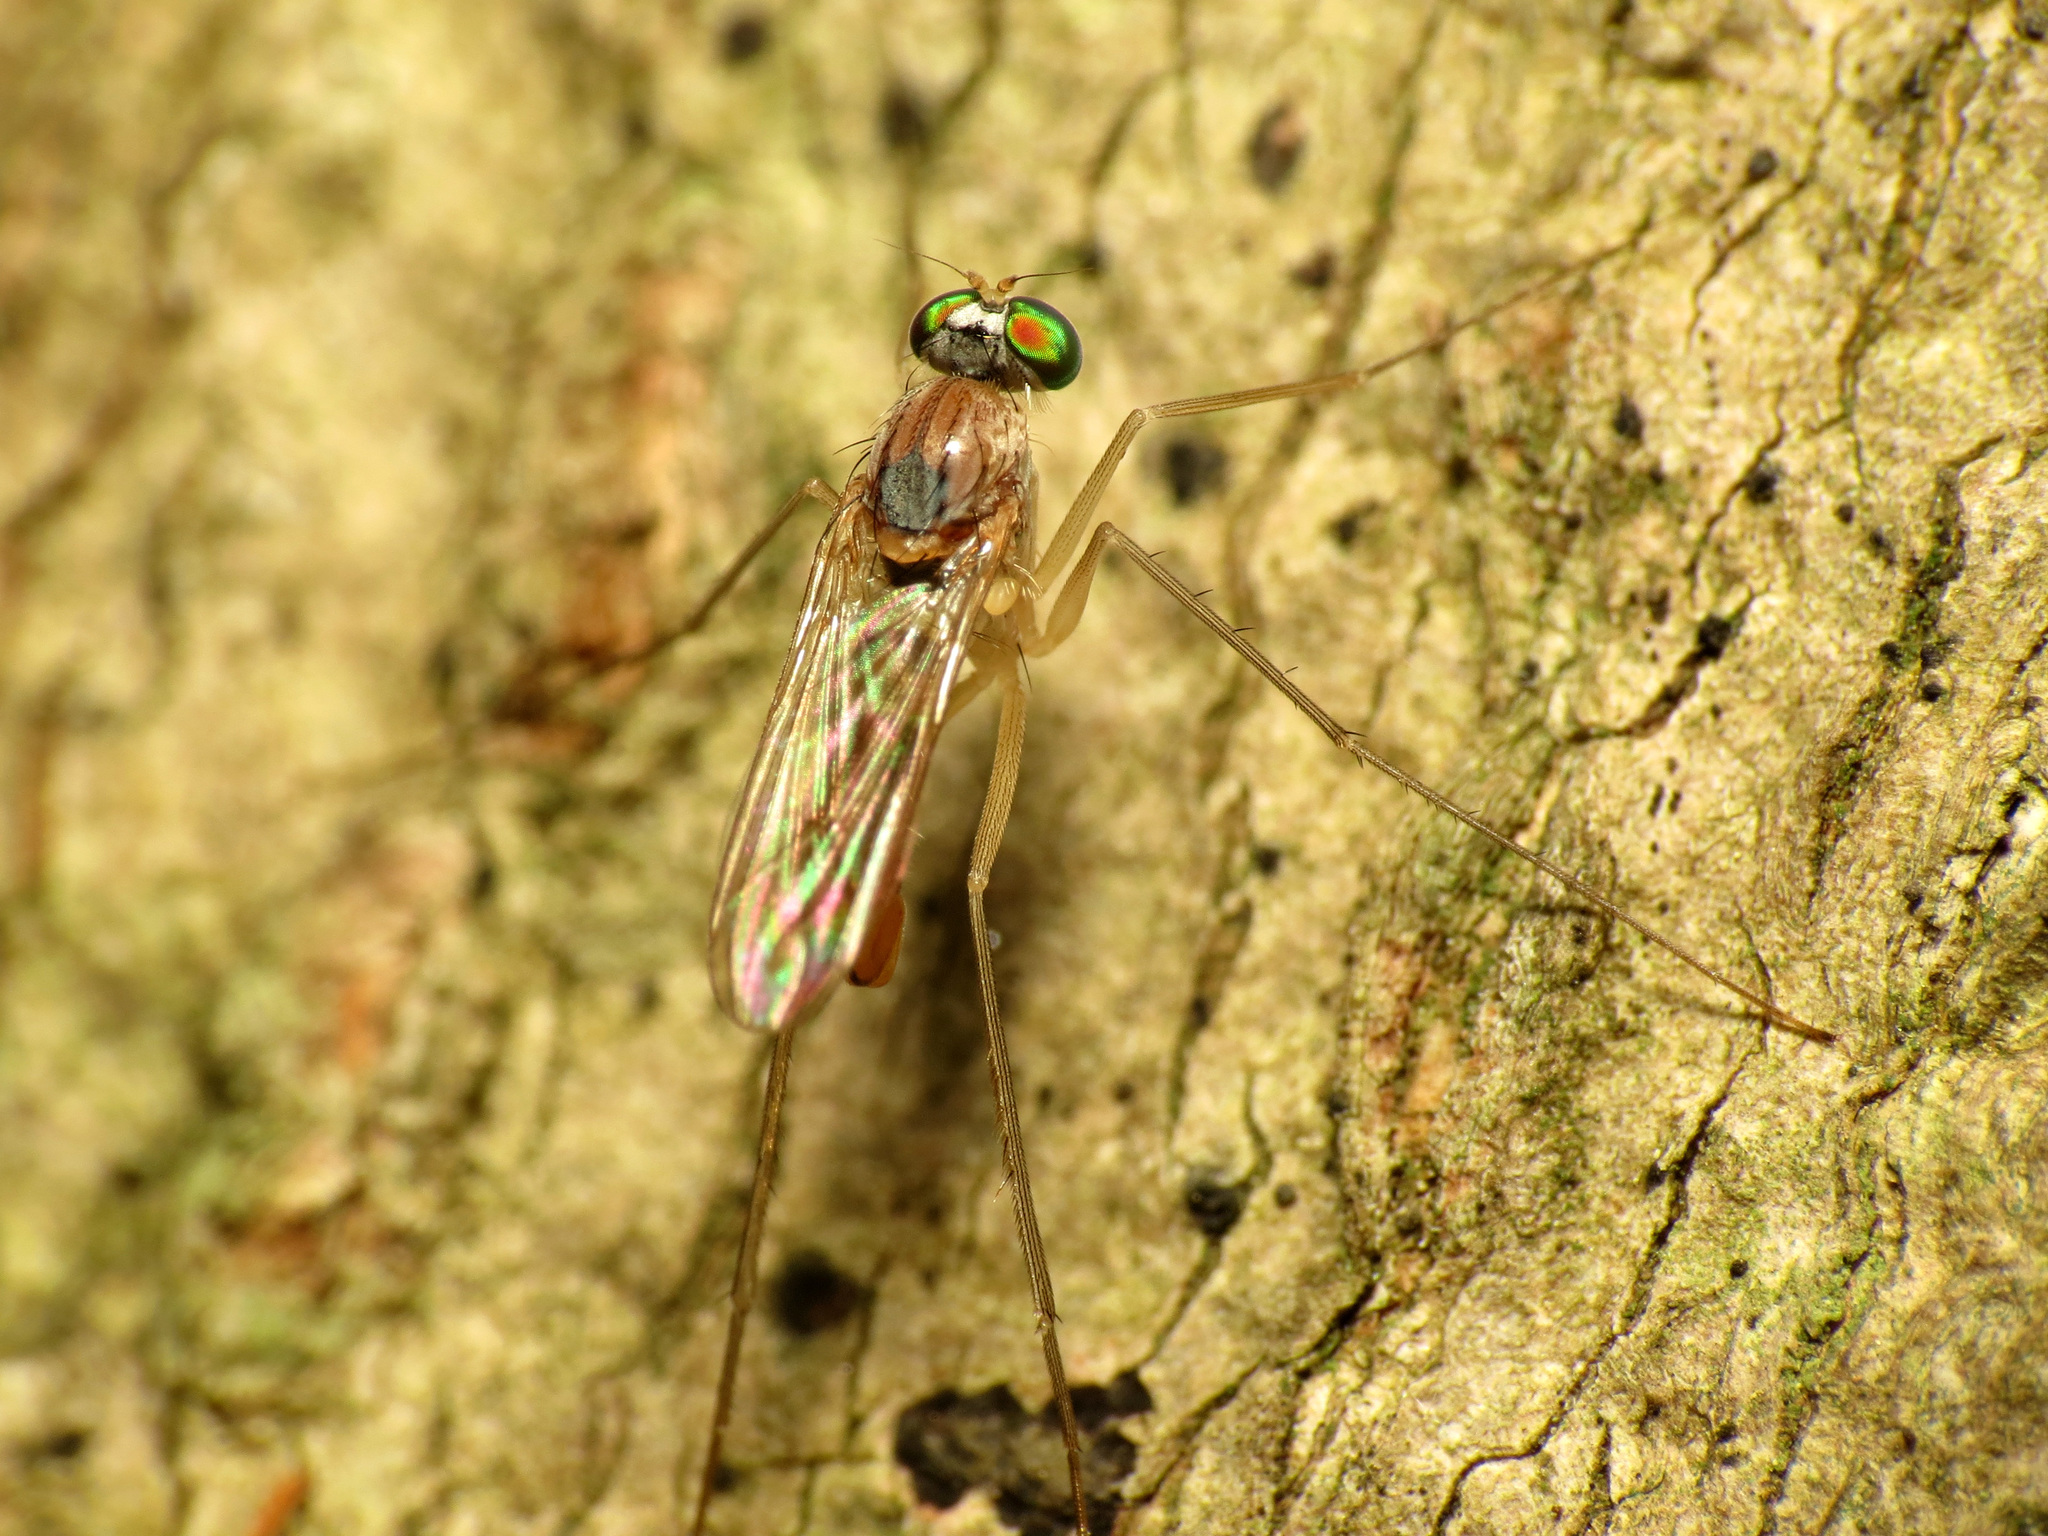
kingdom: Animalia
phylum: Arthropoda
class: Insecta
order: Diptera
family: Dolichopodidae
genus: Neurigona
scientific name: Neurigona carbonifer
